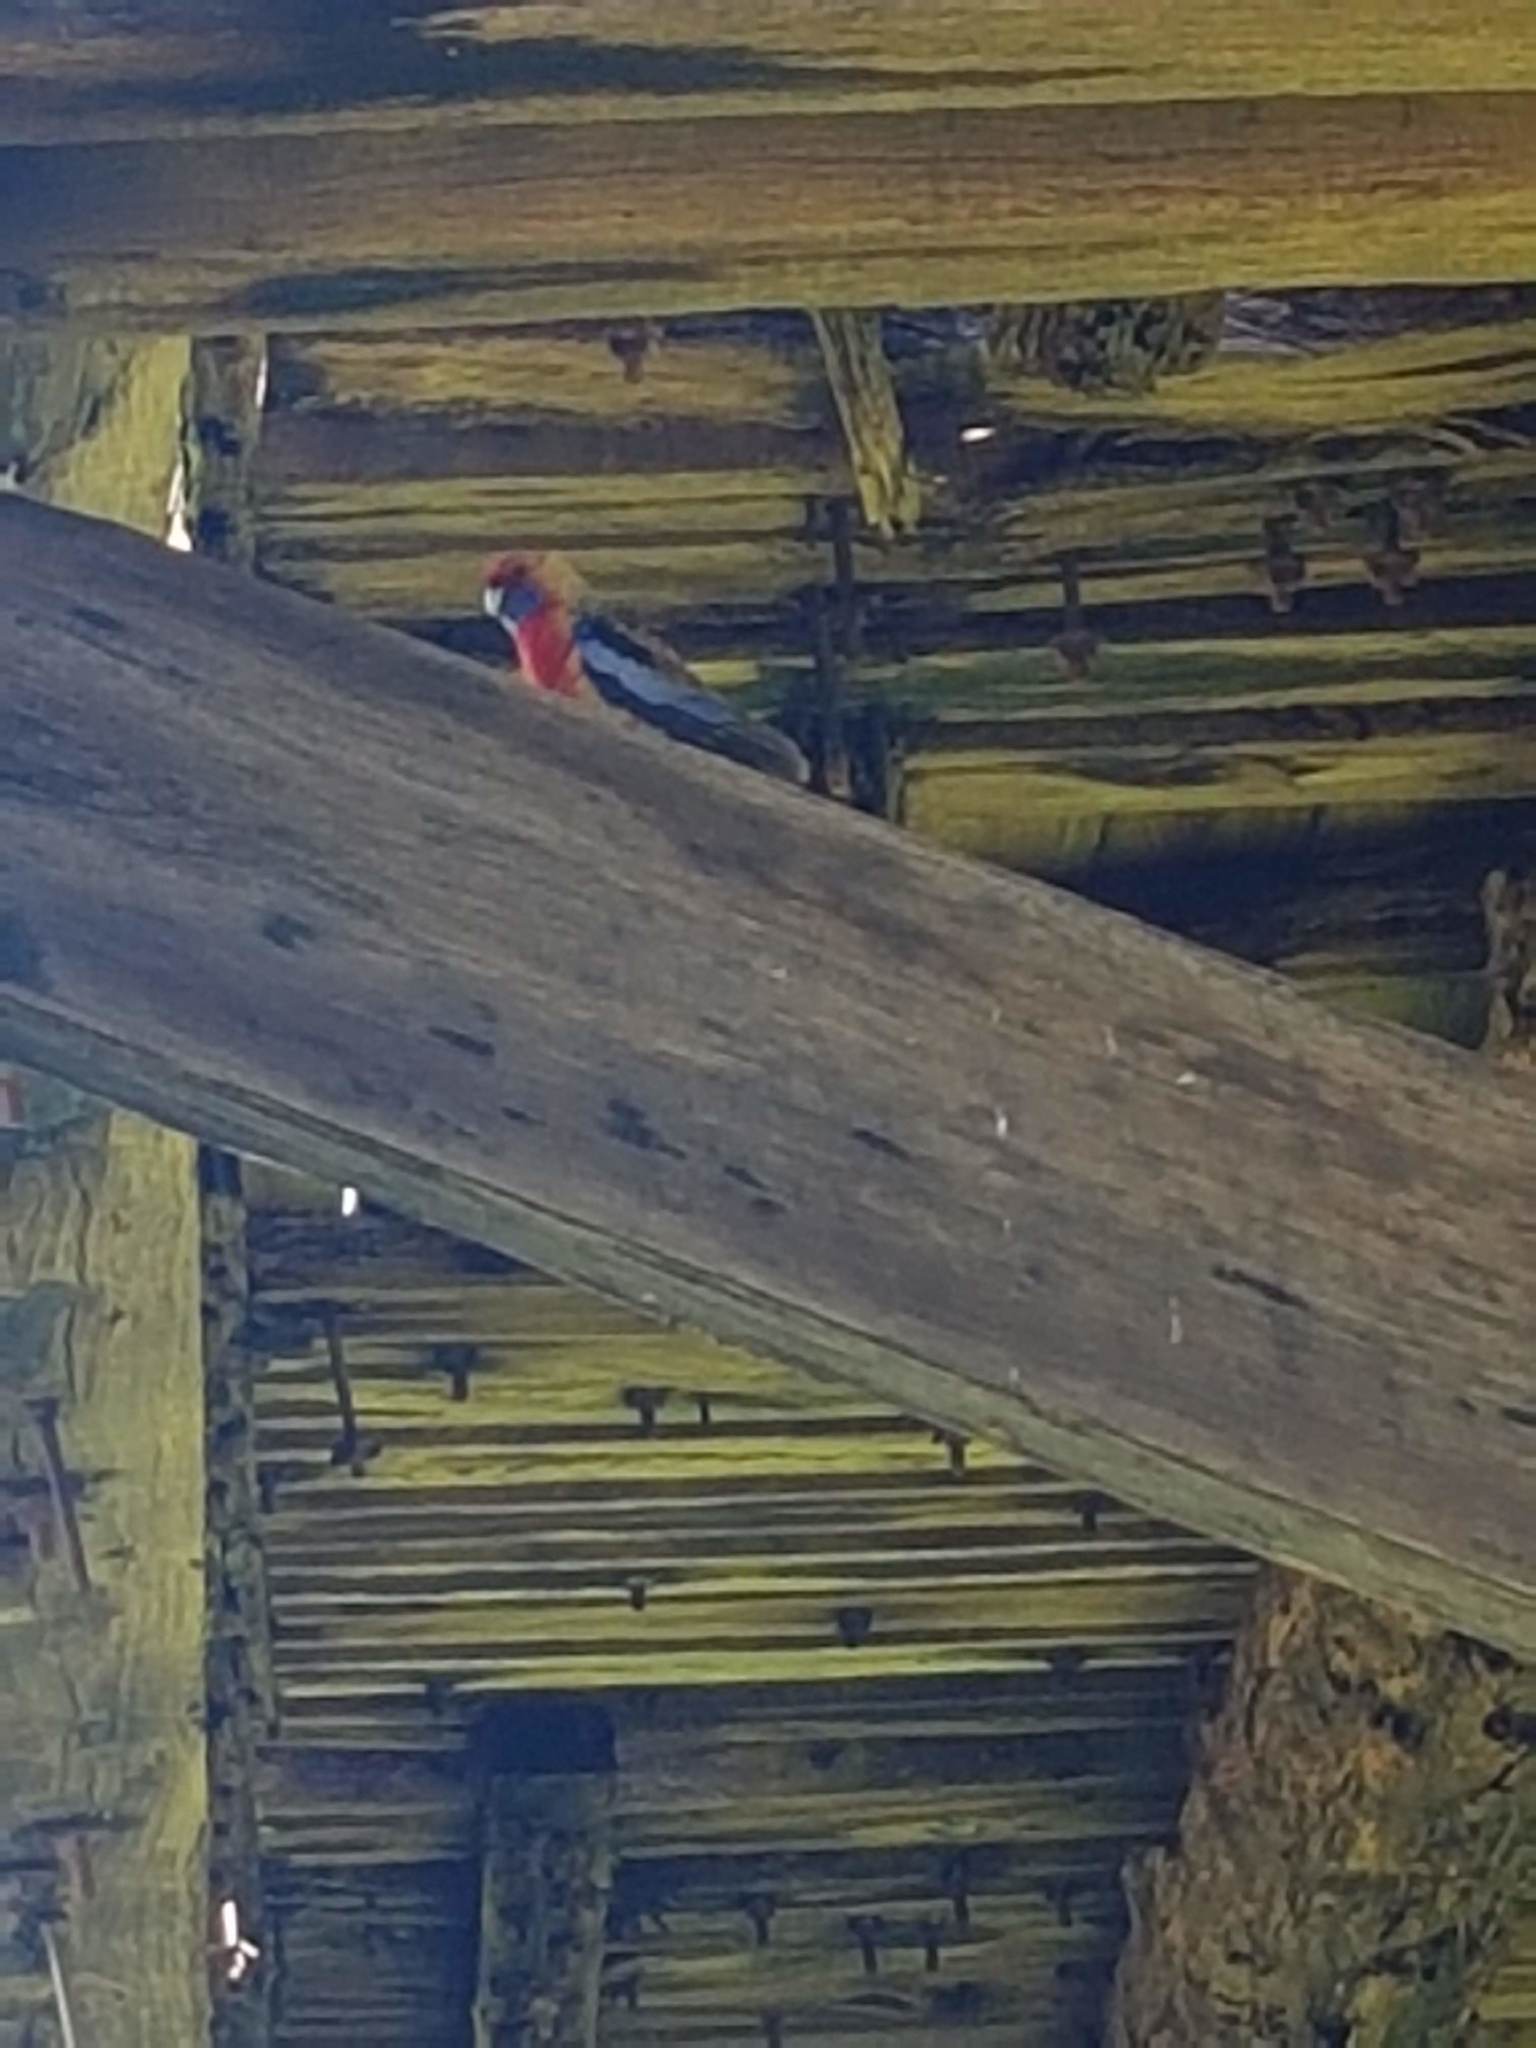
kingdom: Animalia
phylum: Chordata
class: Aves
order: Psittaciformes
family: Psittacidae
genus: Platycercus
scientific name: Platycercus elegans
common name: Crimson rosella
